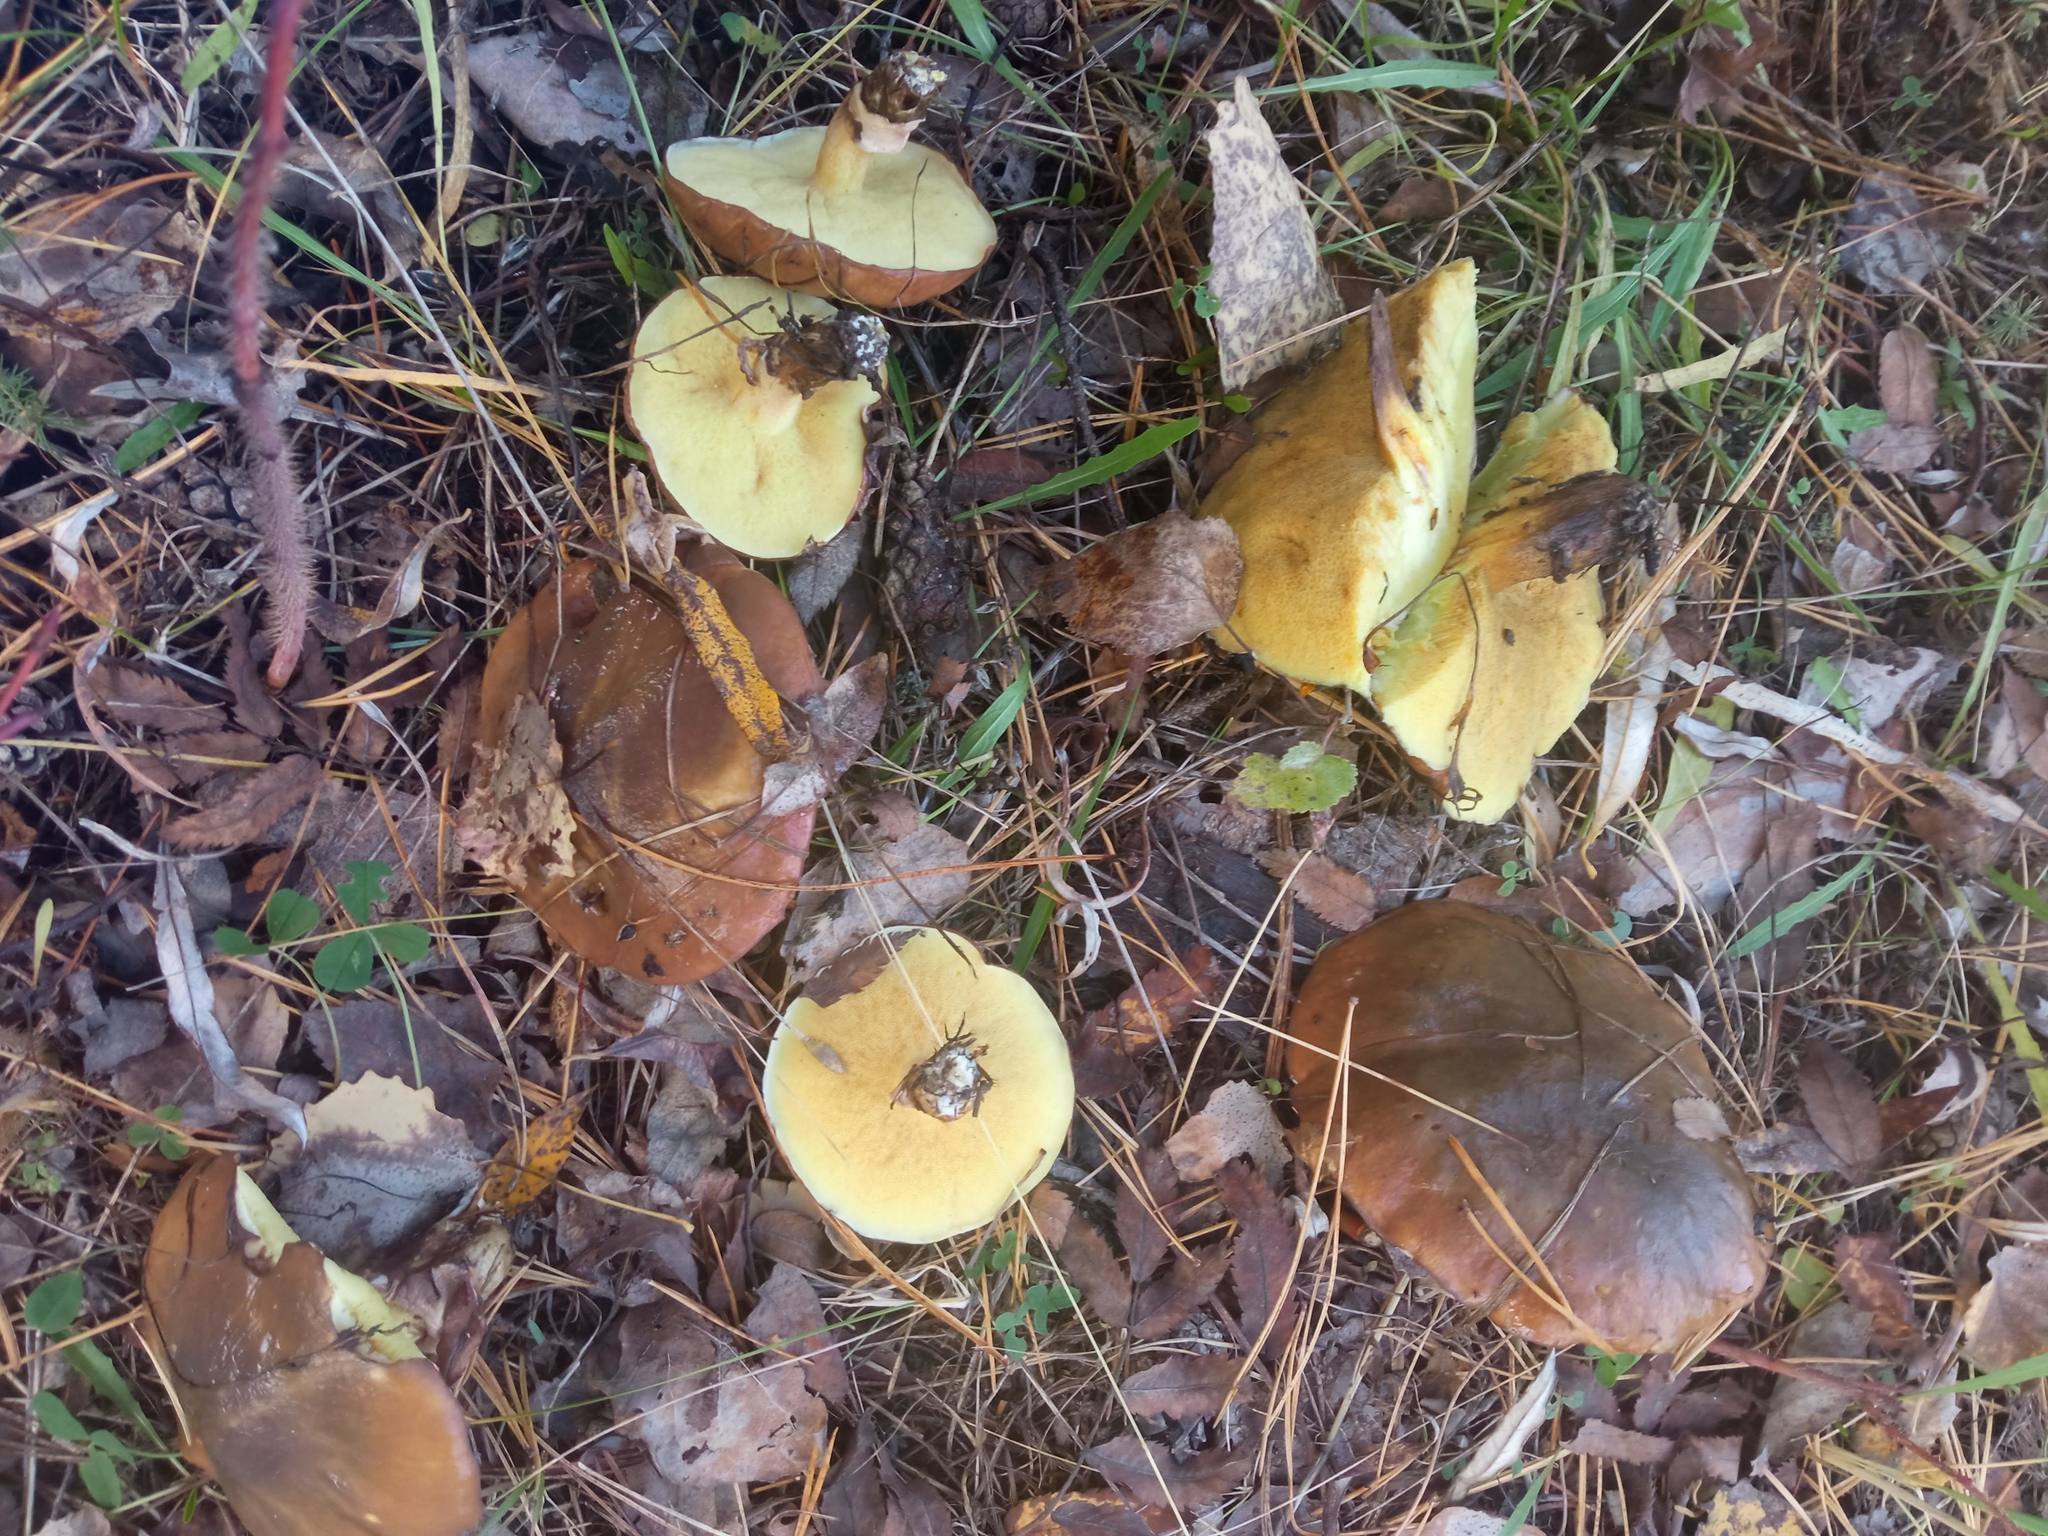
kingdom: Fungi
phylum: Basidiomycota
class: Agaricomycetes
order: Boletales
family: Suillaceae
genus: Suillus
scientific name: Suillus luteus
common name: Slippery jack
